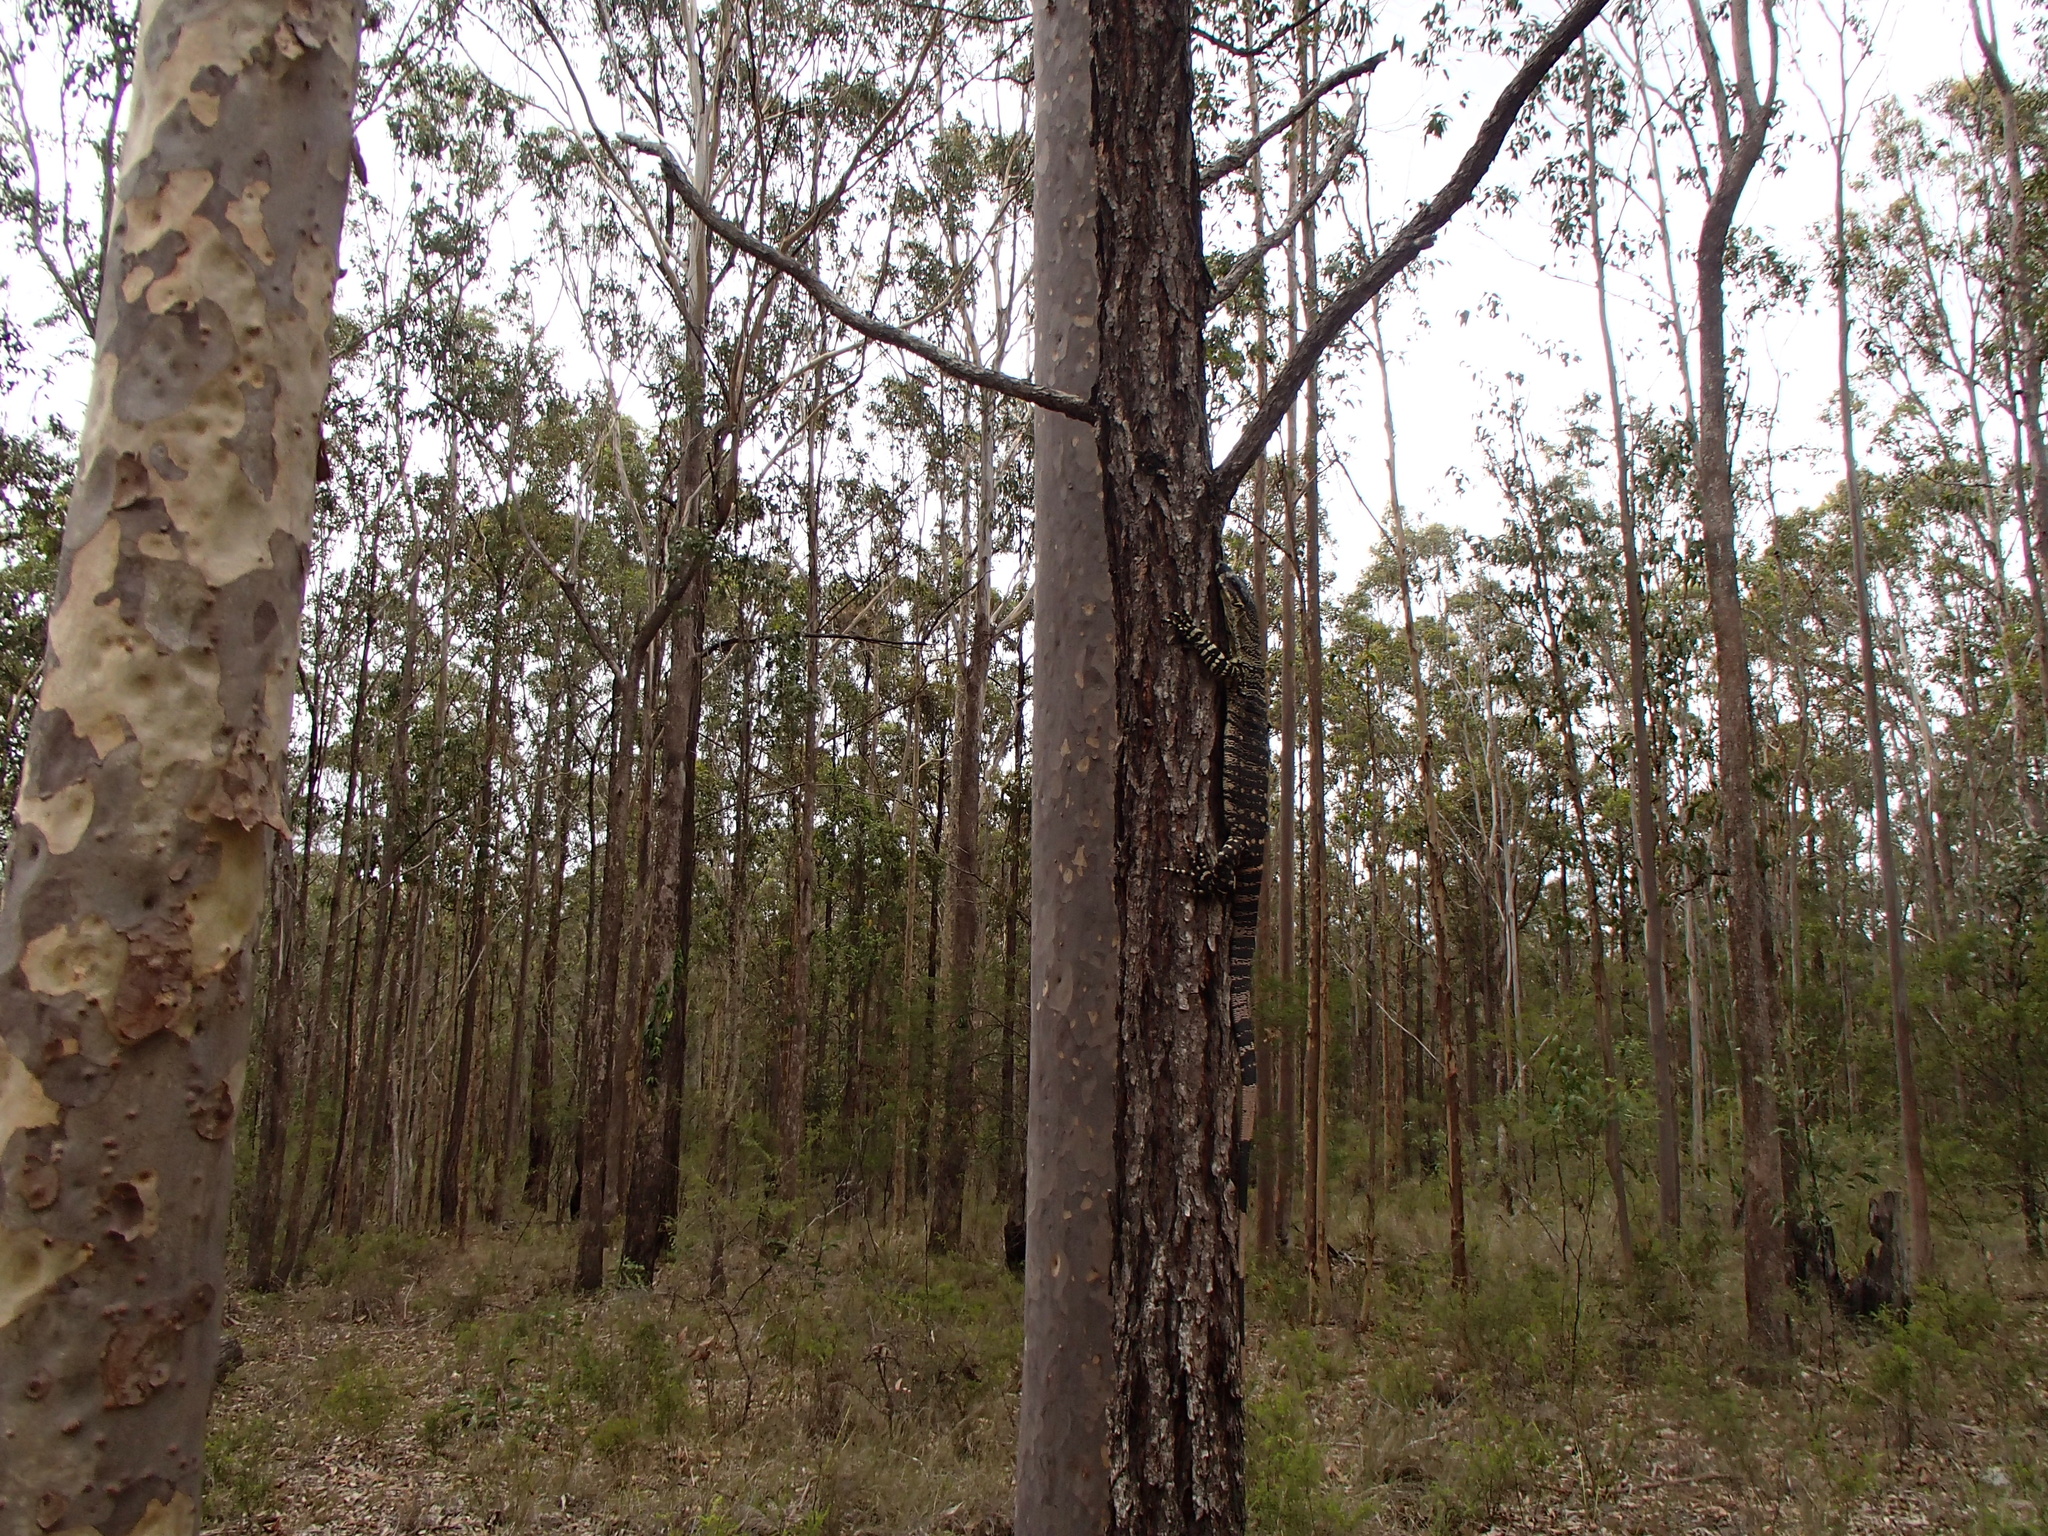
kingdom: Animalia
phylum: Chordata
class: Squamata
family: Varanidae
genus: Varanus
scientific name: Varanus varius
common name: Lace monitor
